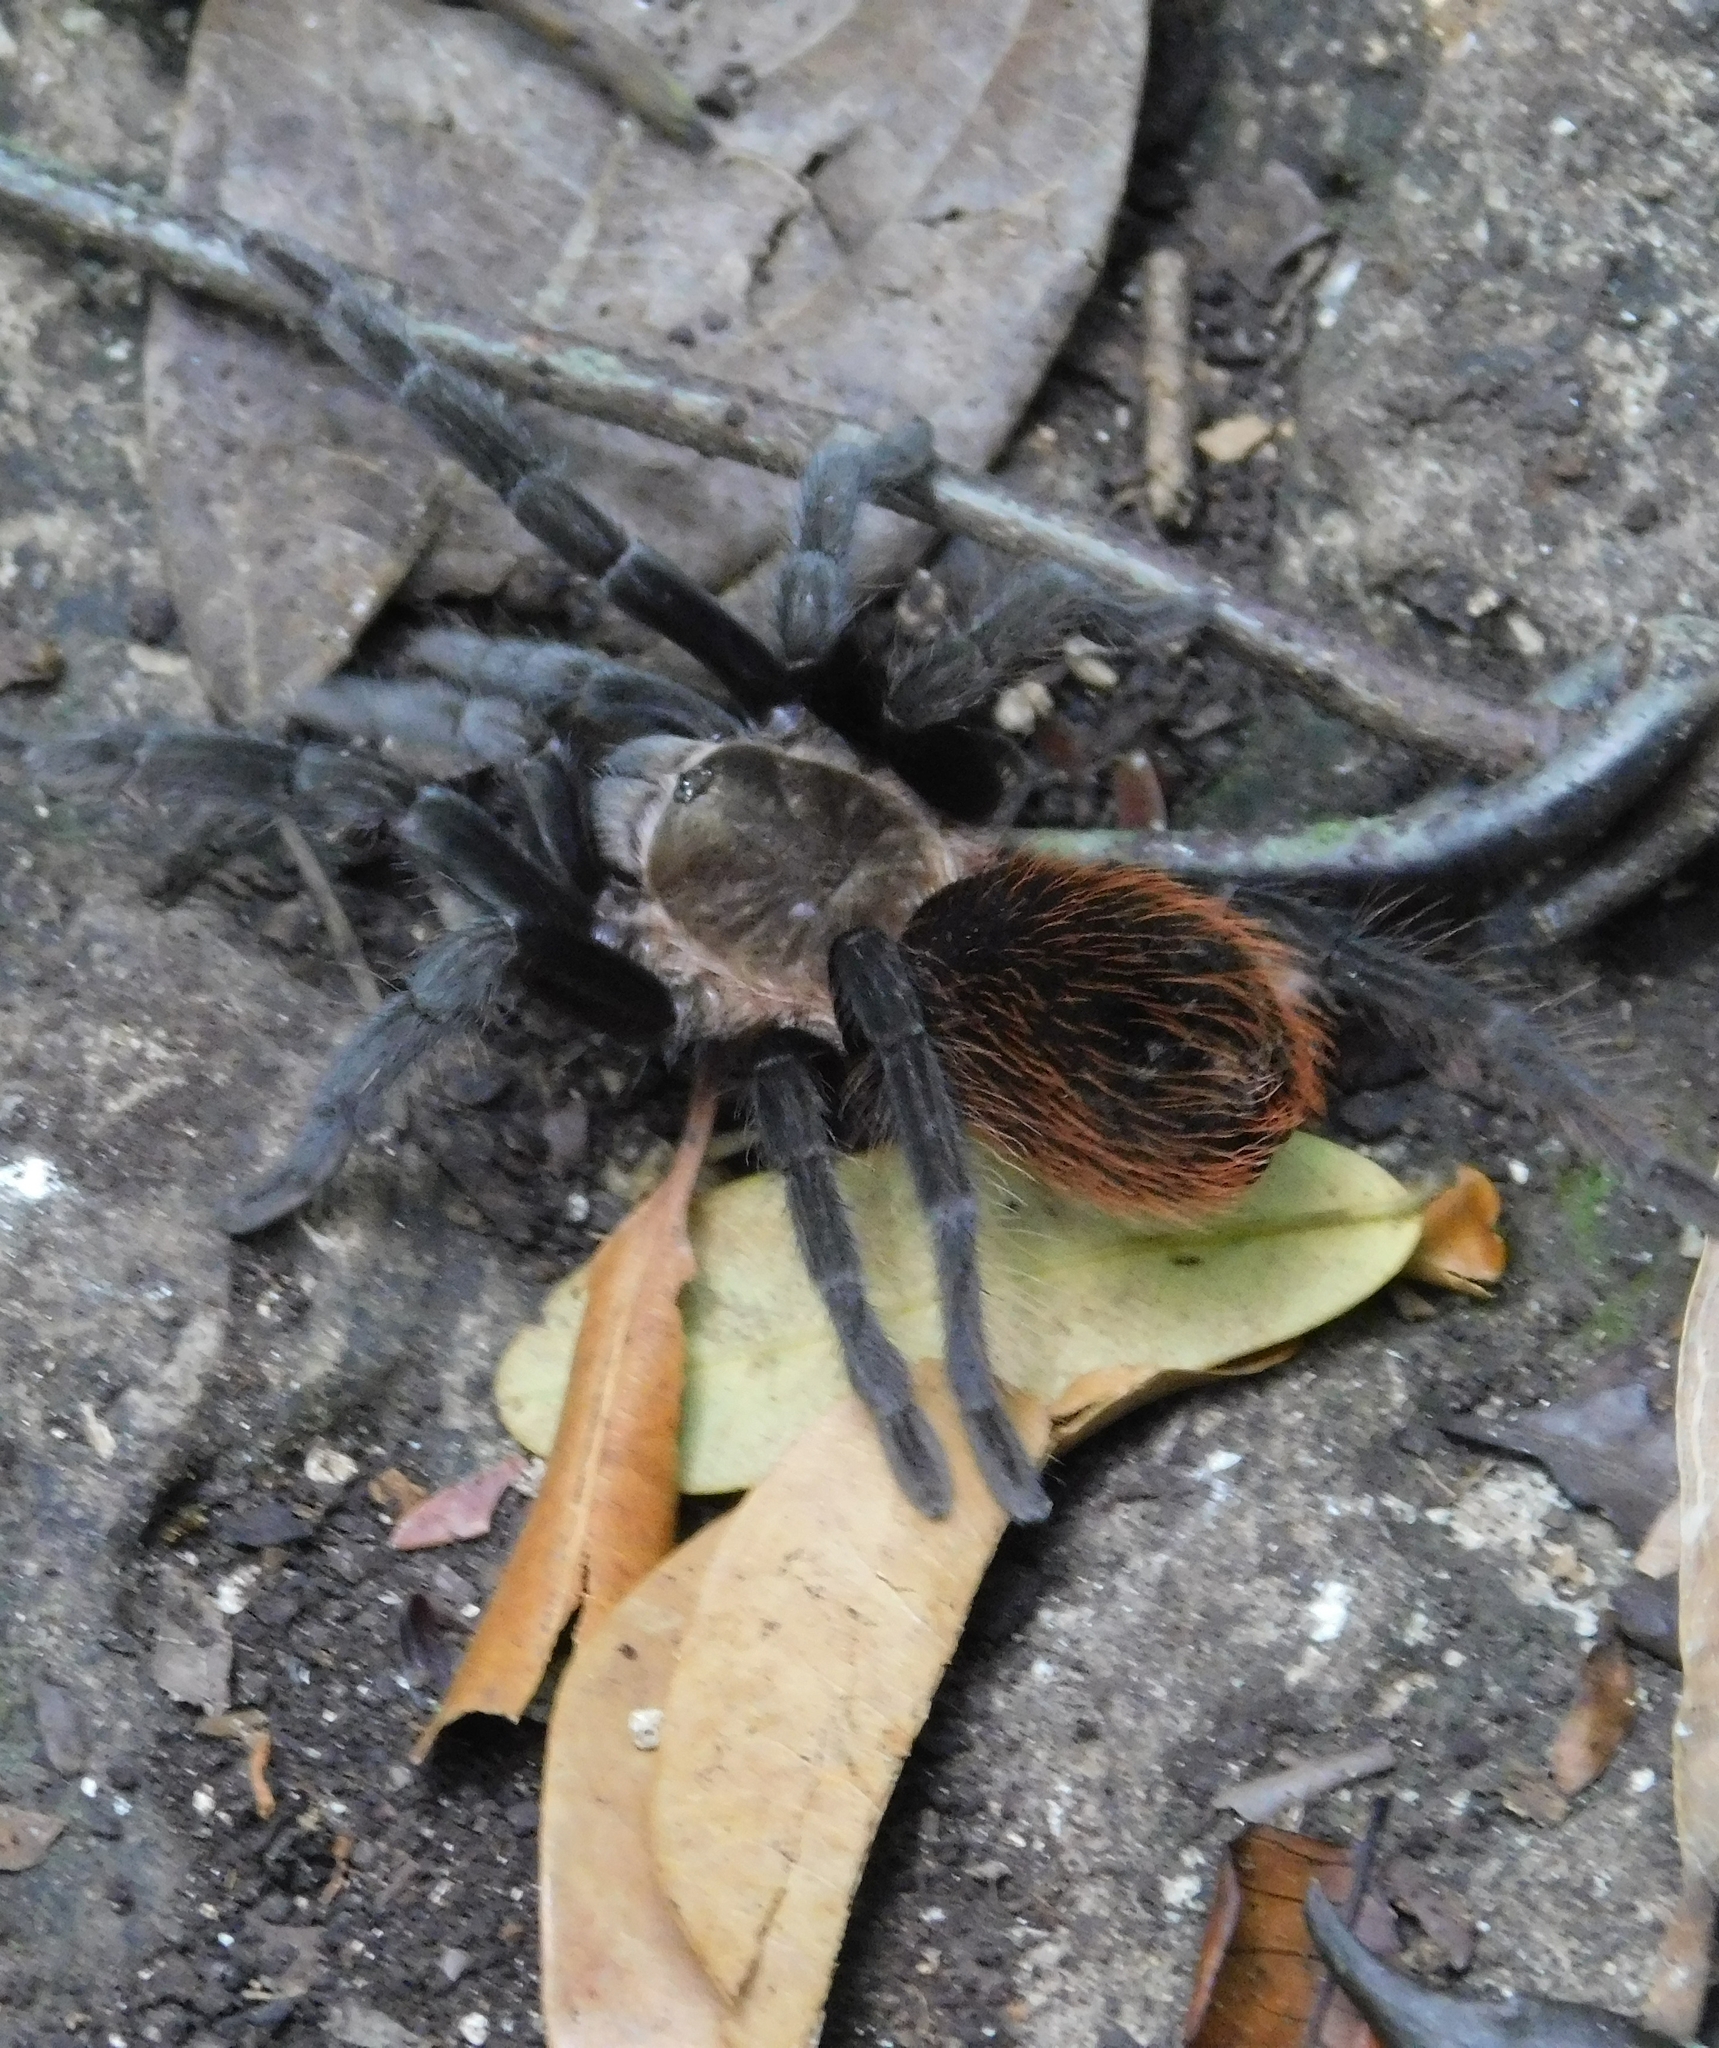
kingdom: Animalia
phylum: Arthropoda
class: Arachnida
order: Araneae
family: Theraphosidae
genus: Tliltocatl
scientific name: Tliltocatl vagans
